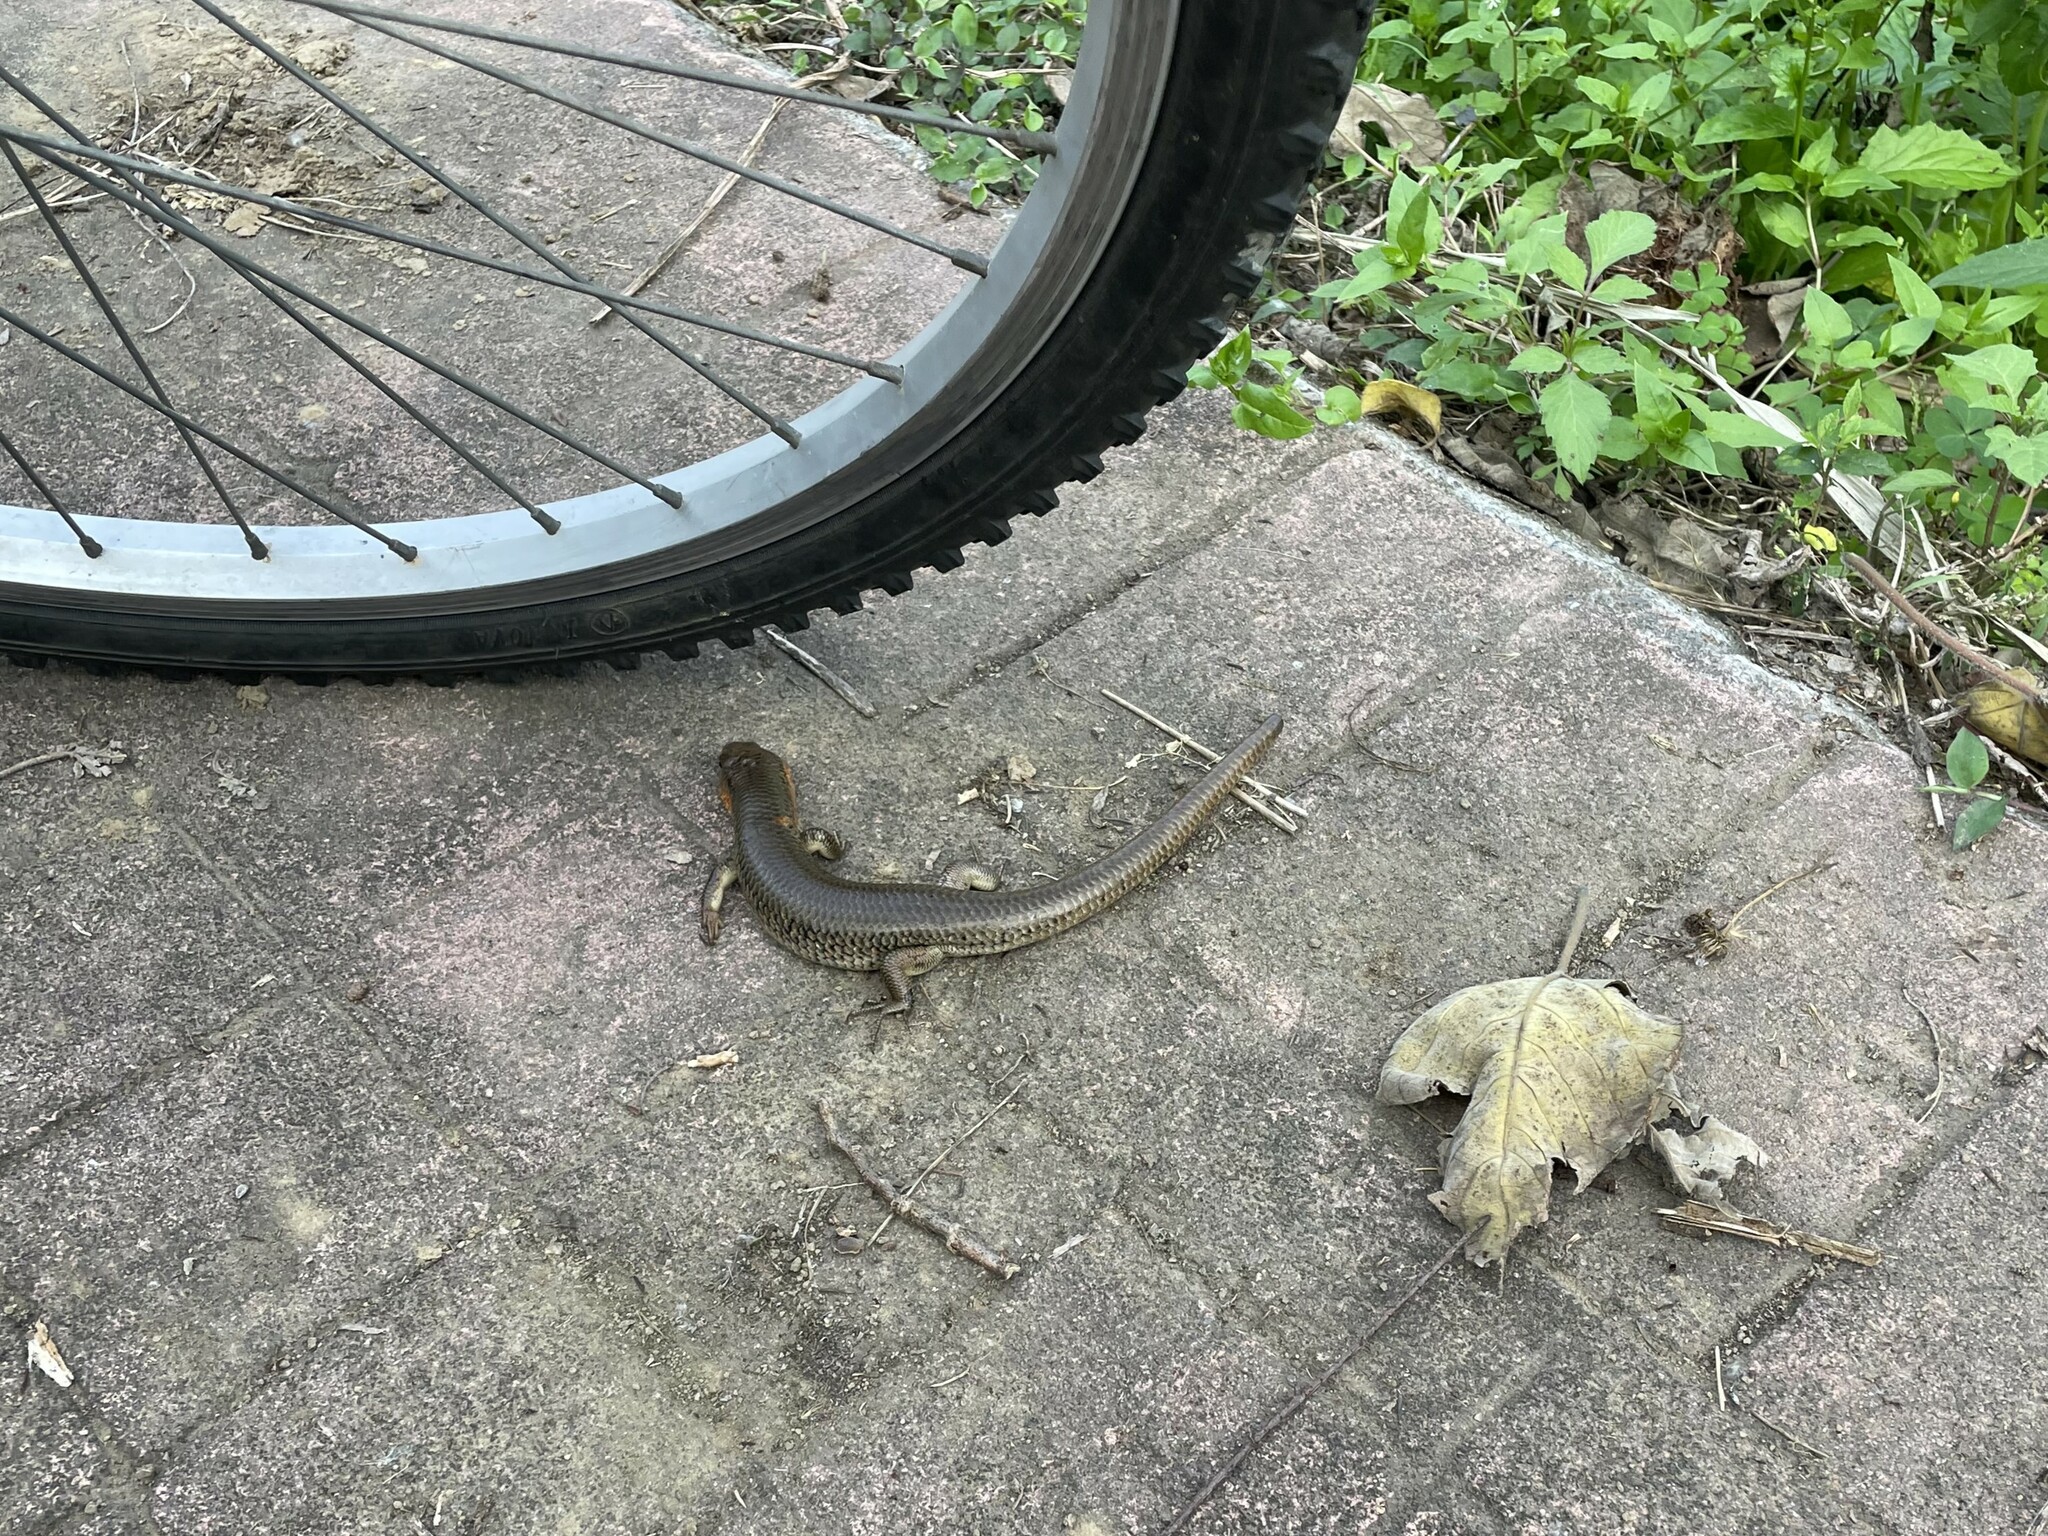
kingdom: Animalia
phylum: Chordata
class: Squamata
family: Scincidae
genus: Plestiodon
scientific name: Plestiodon chinensis
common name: Chinese blue-tailed skink
